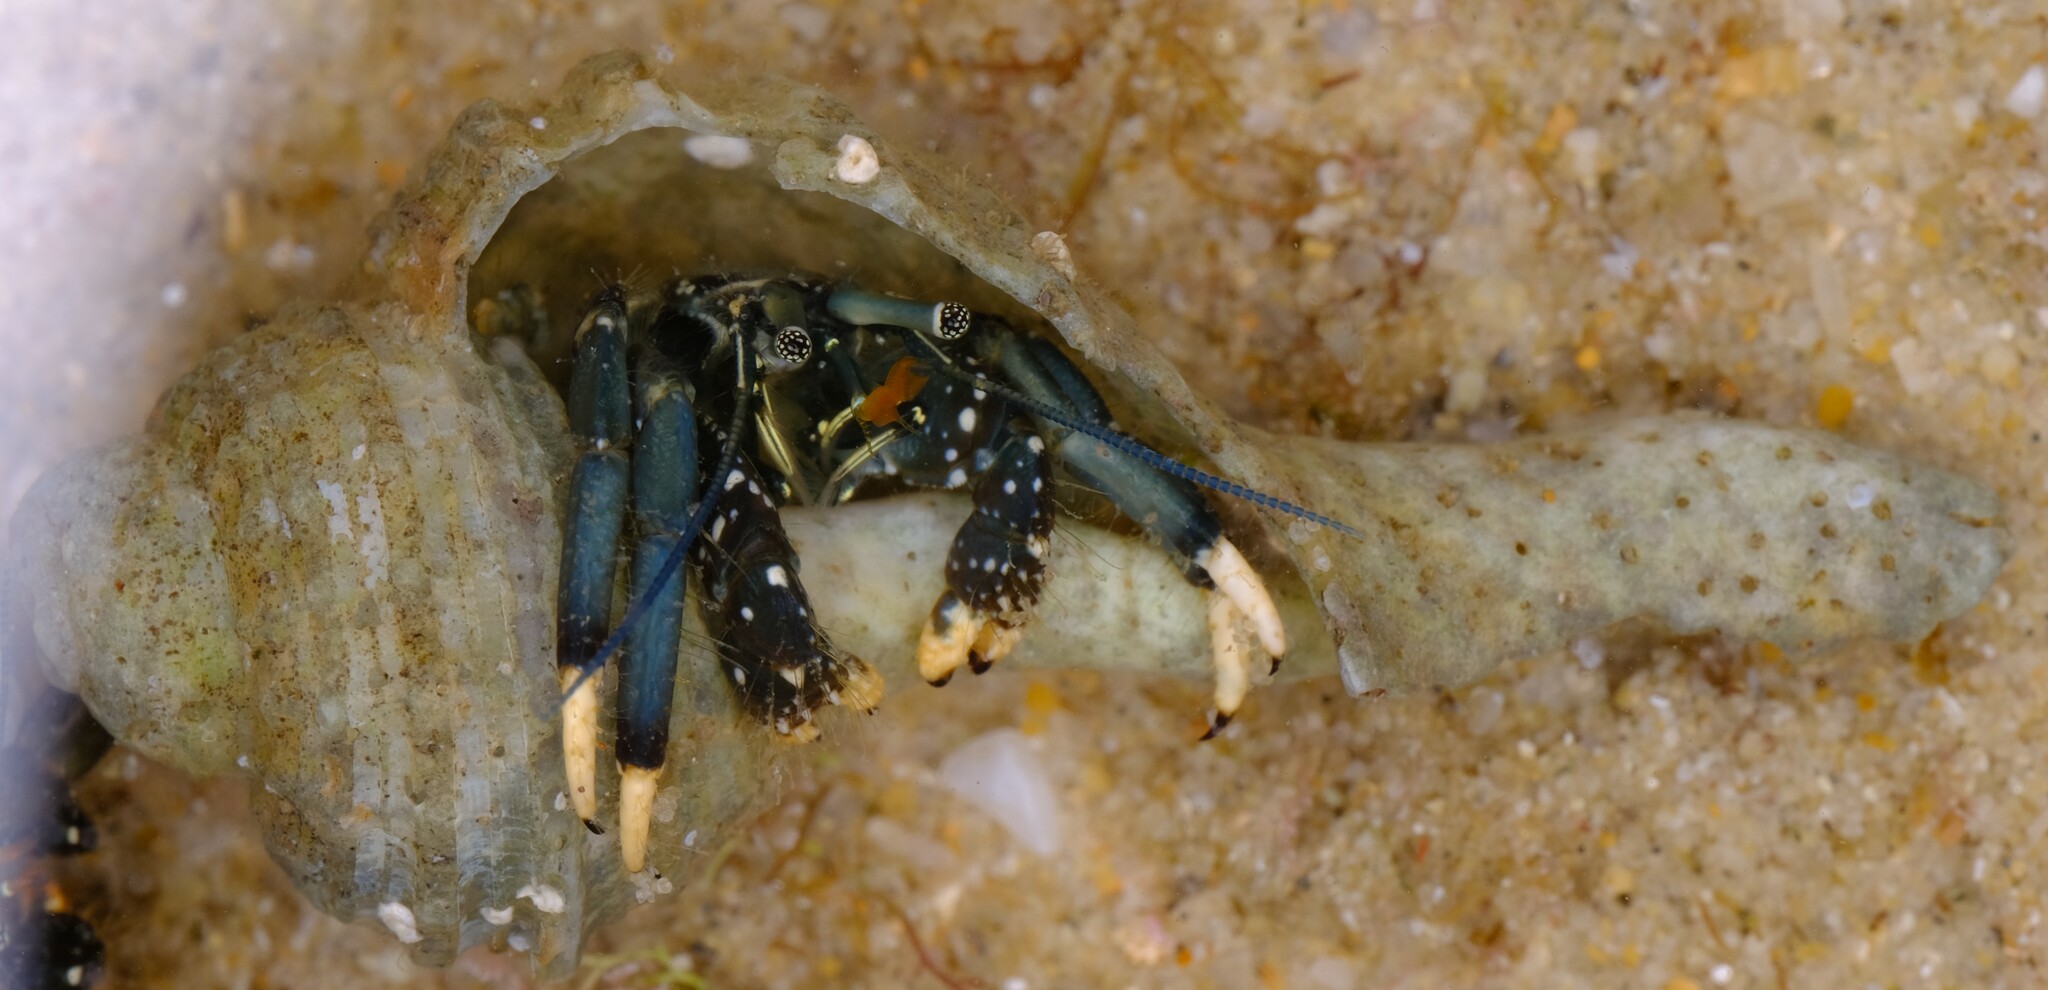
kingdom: Animalia
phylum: Arthropoda
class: Malacostraca
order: Decapoda
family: Diogenidae
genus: Clibanarius
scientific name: Clibanarius virescens
